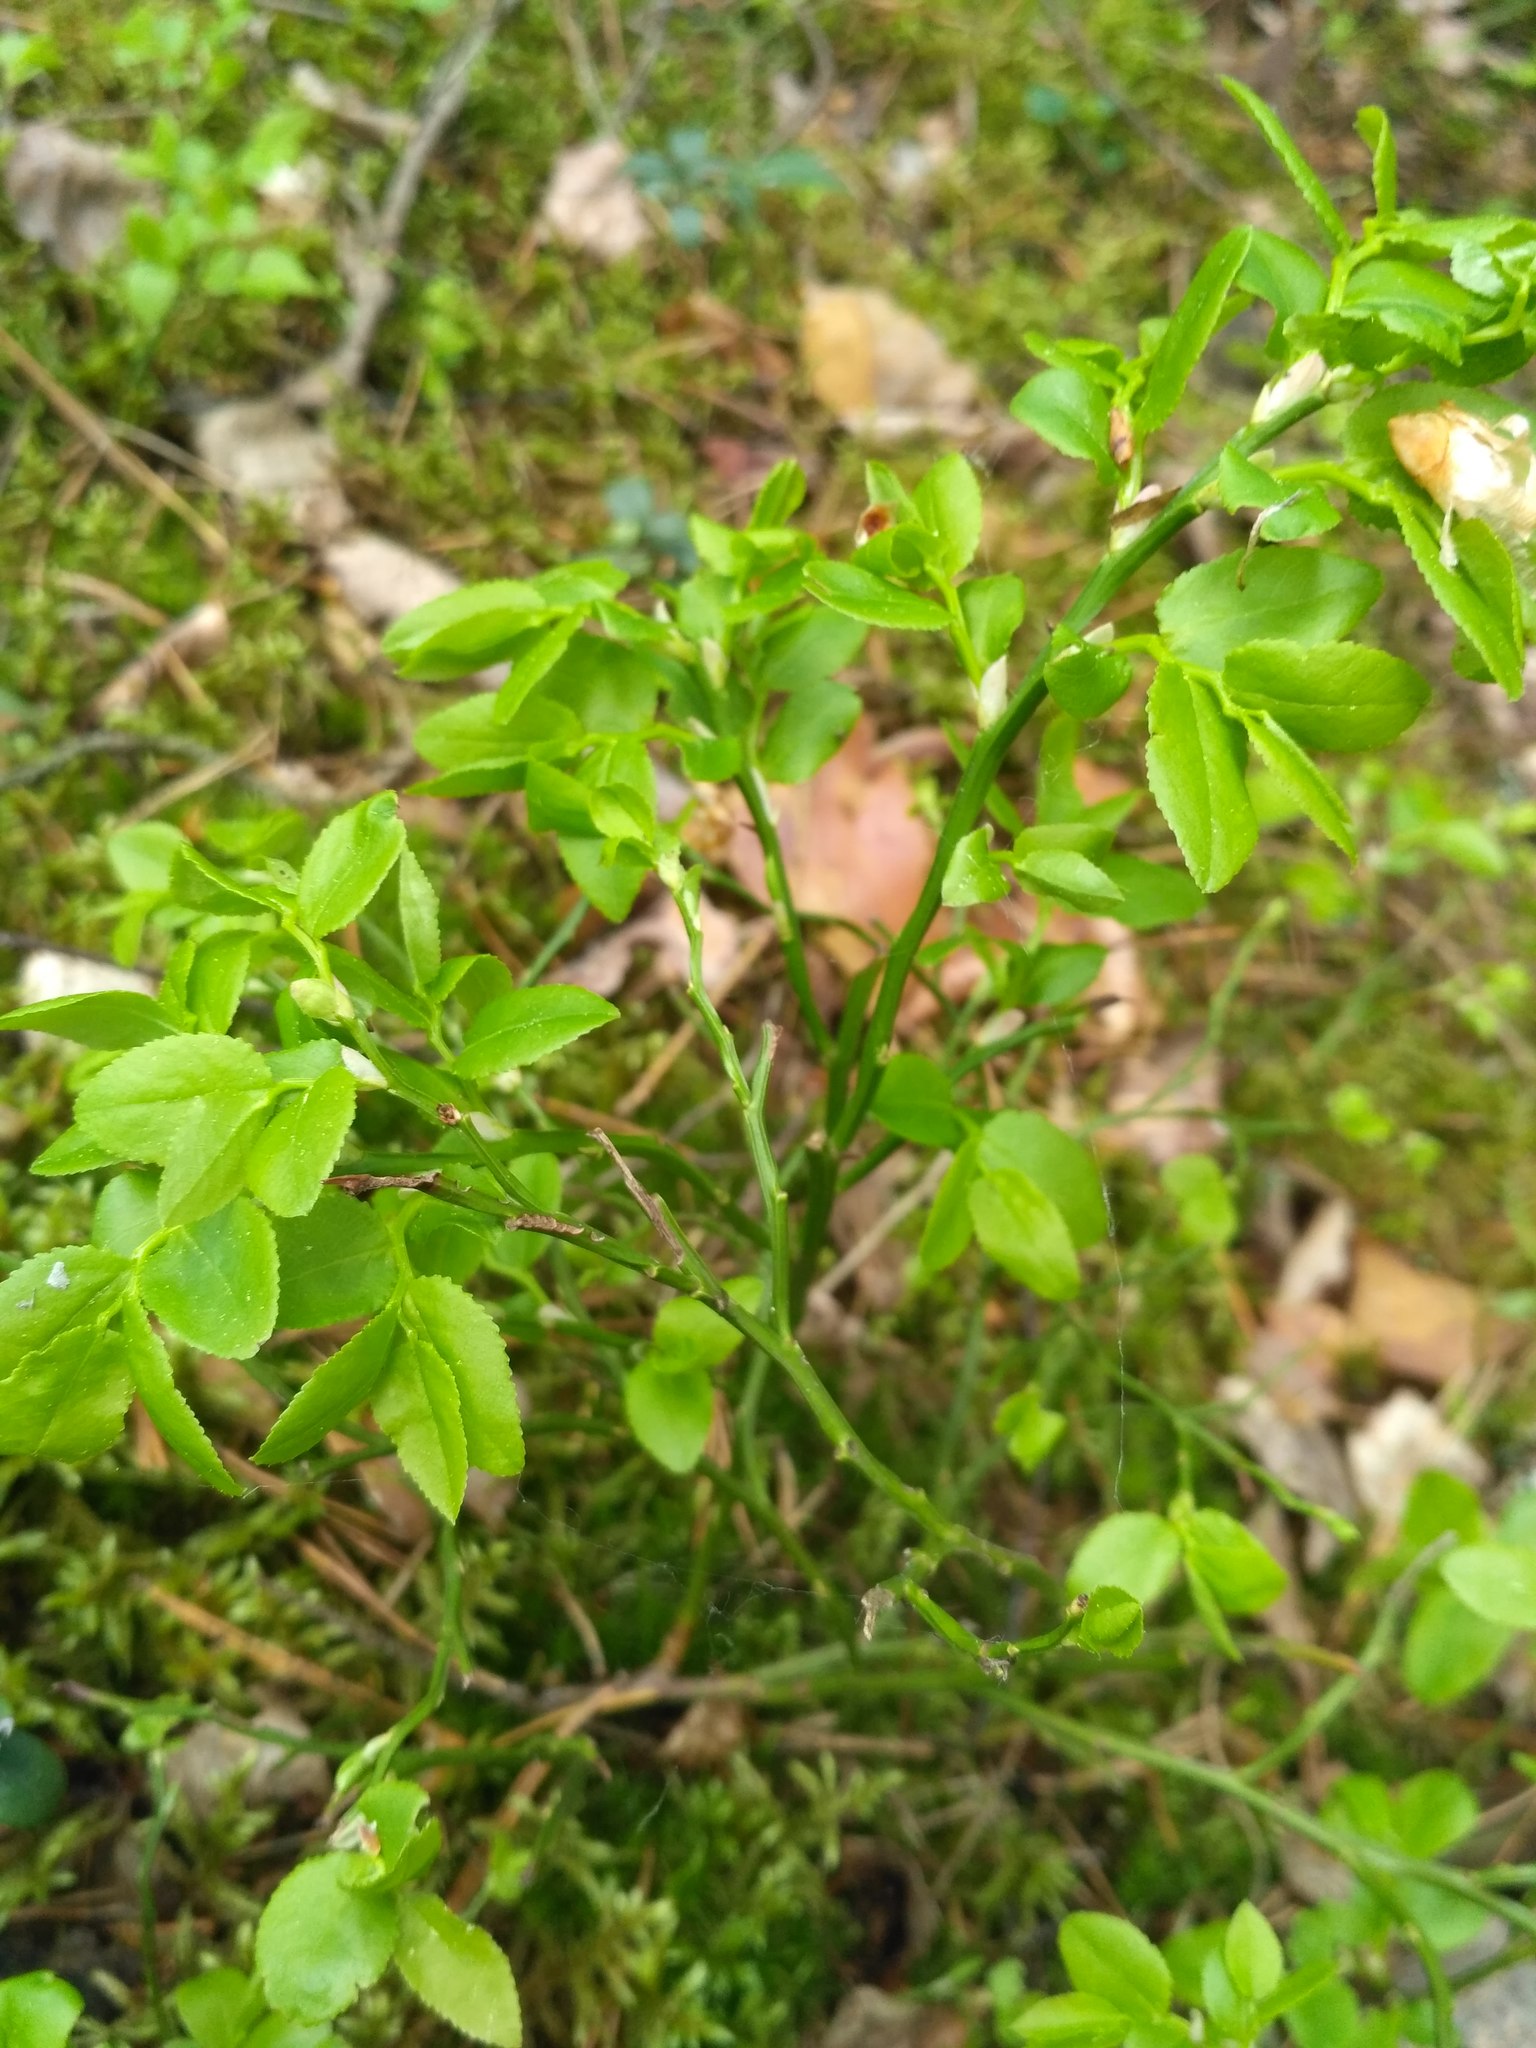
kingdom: Plantae
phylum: Tracheophyta
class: Magnoliopsida
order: Ericales
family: Ericaceae
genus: Vaccinium
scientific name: Vaccinium myrtillus
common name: Bilberry
